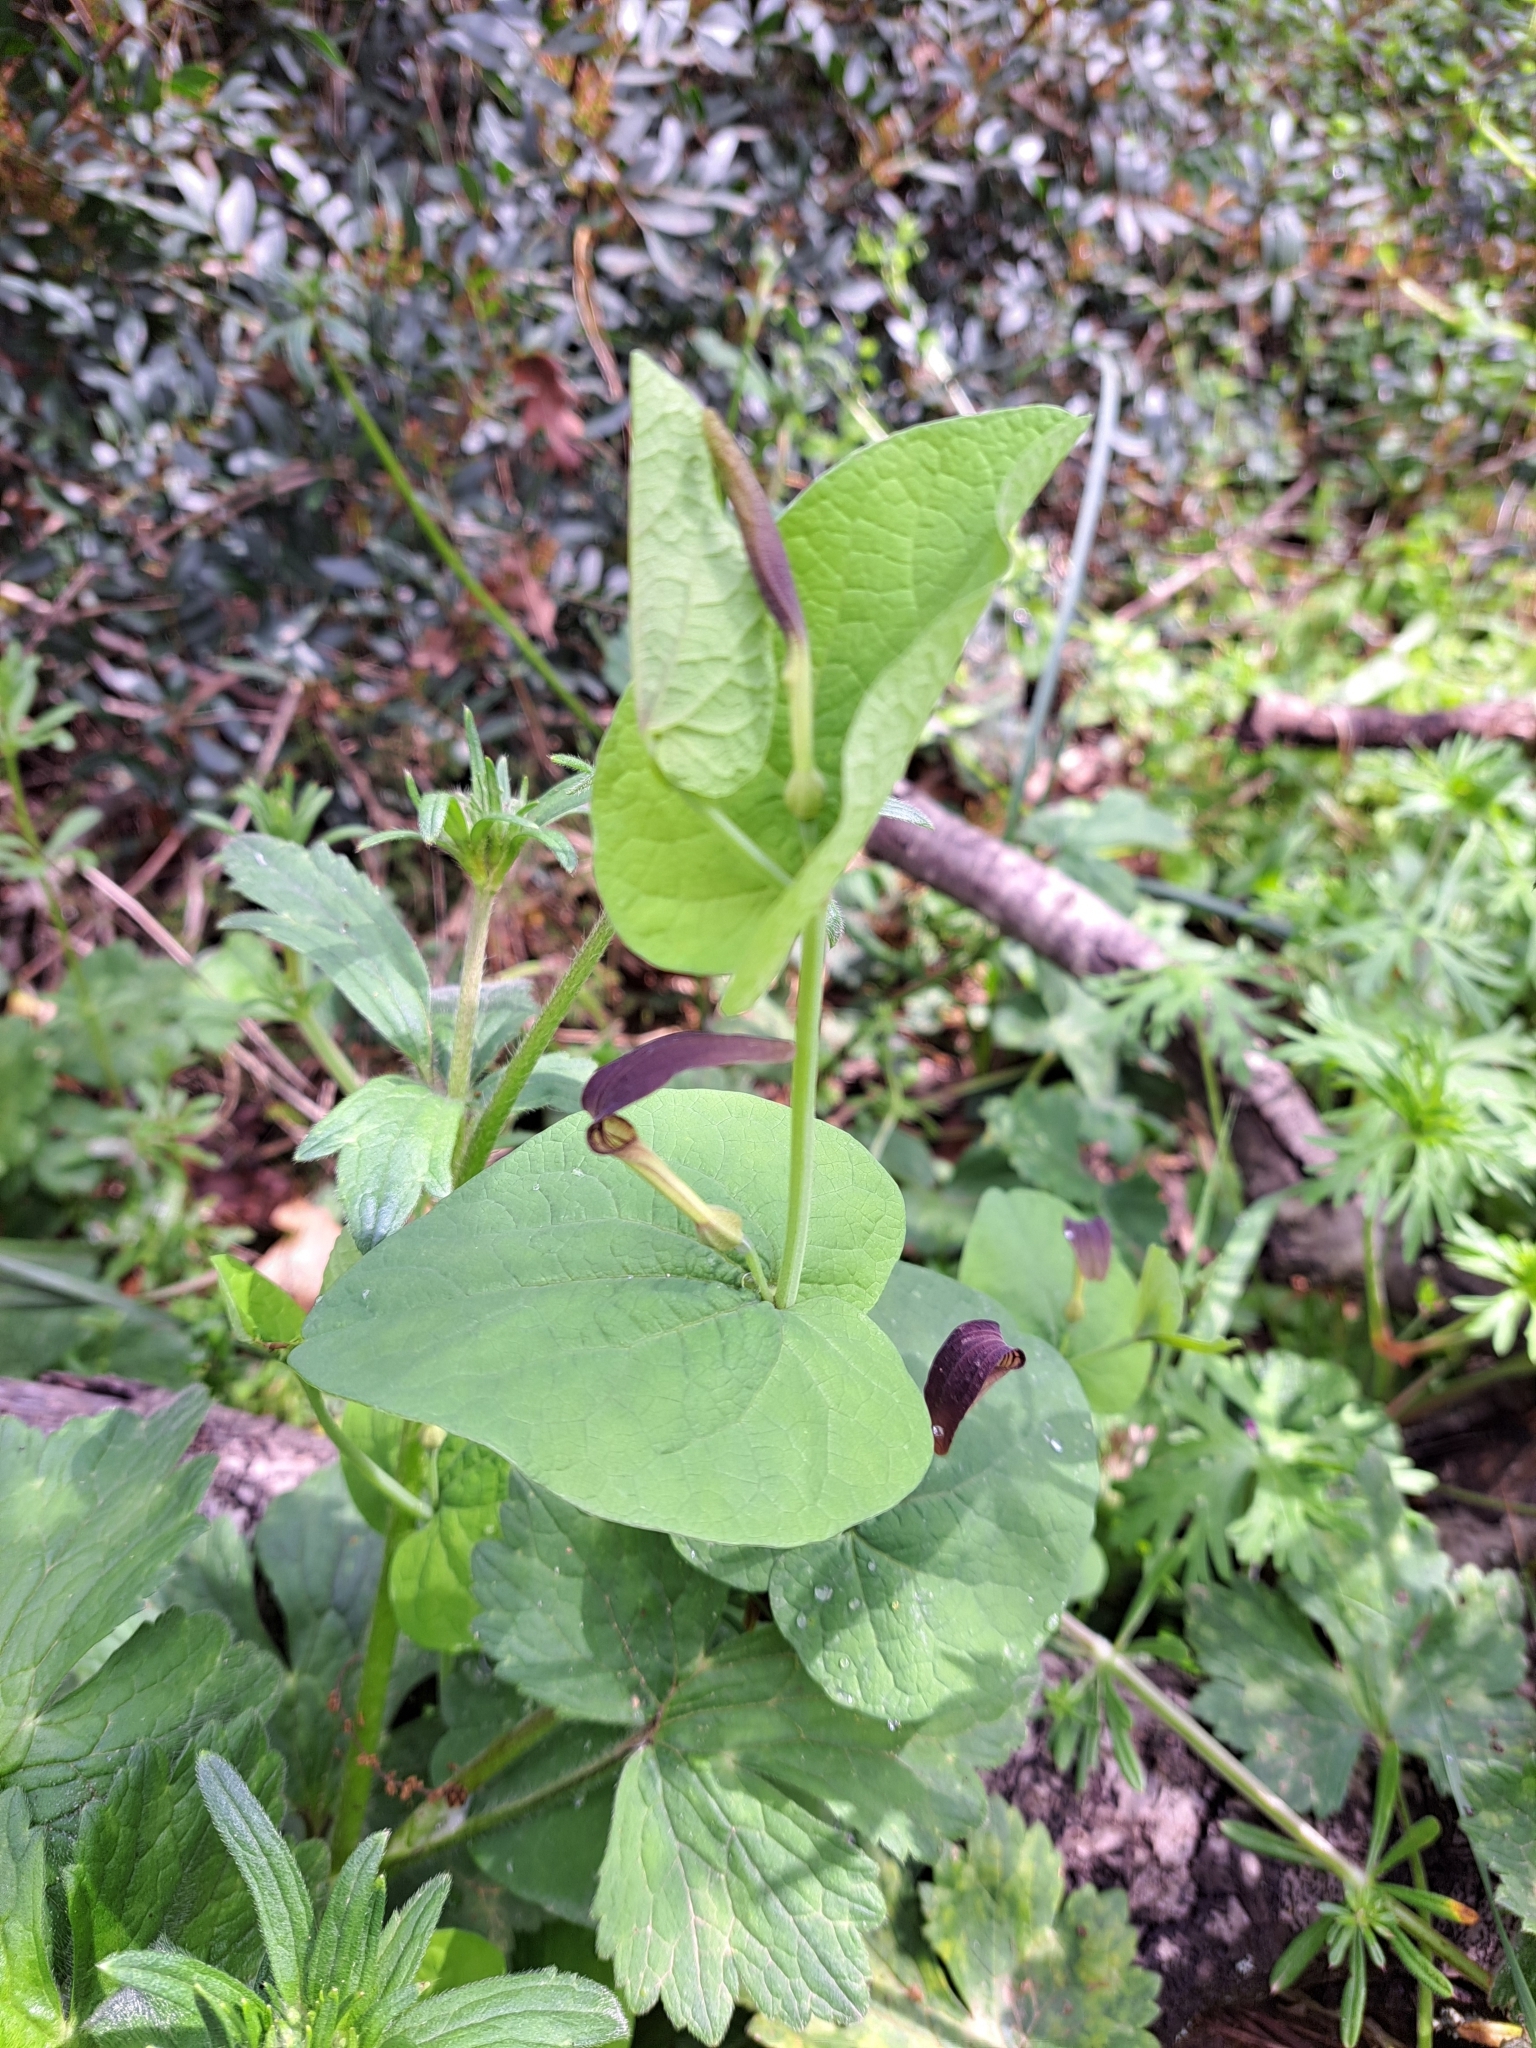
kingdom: Plantae
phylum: Tracheophyta
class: Magnoliopsida
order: Piperales
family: Aristolochiaceae
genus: Aristolochia
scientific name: Aristolochia rotunda
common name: Smearwort
